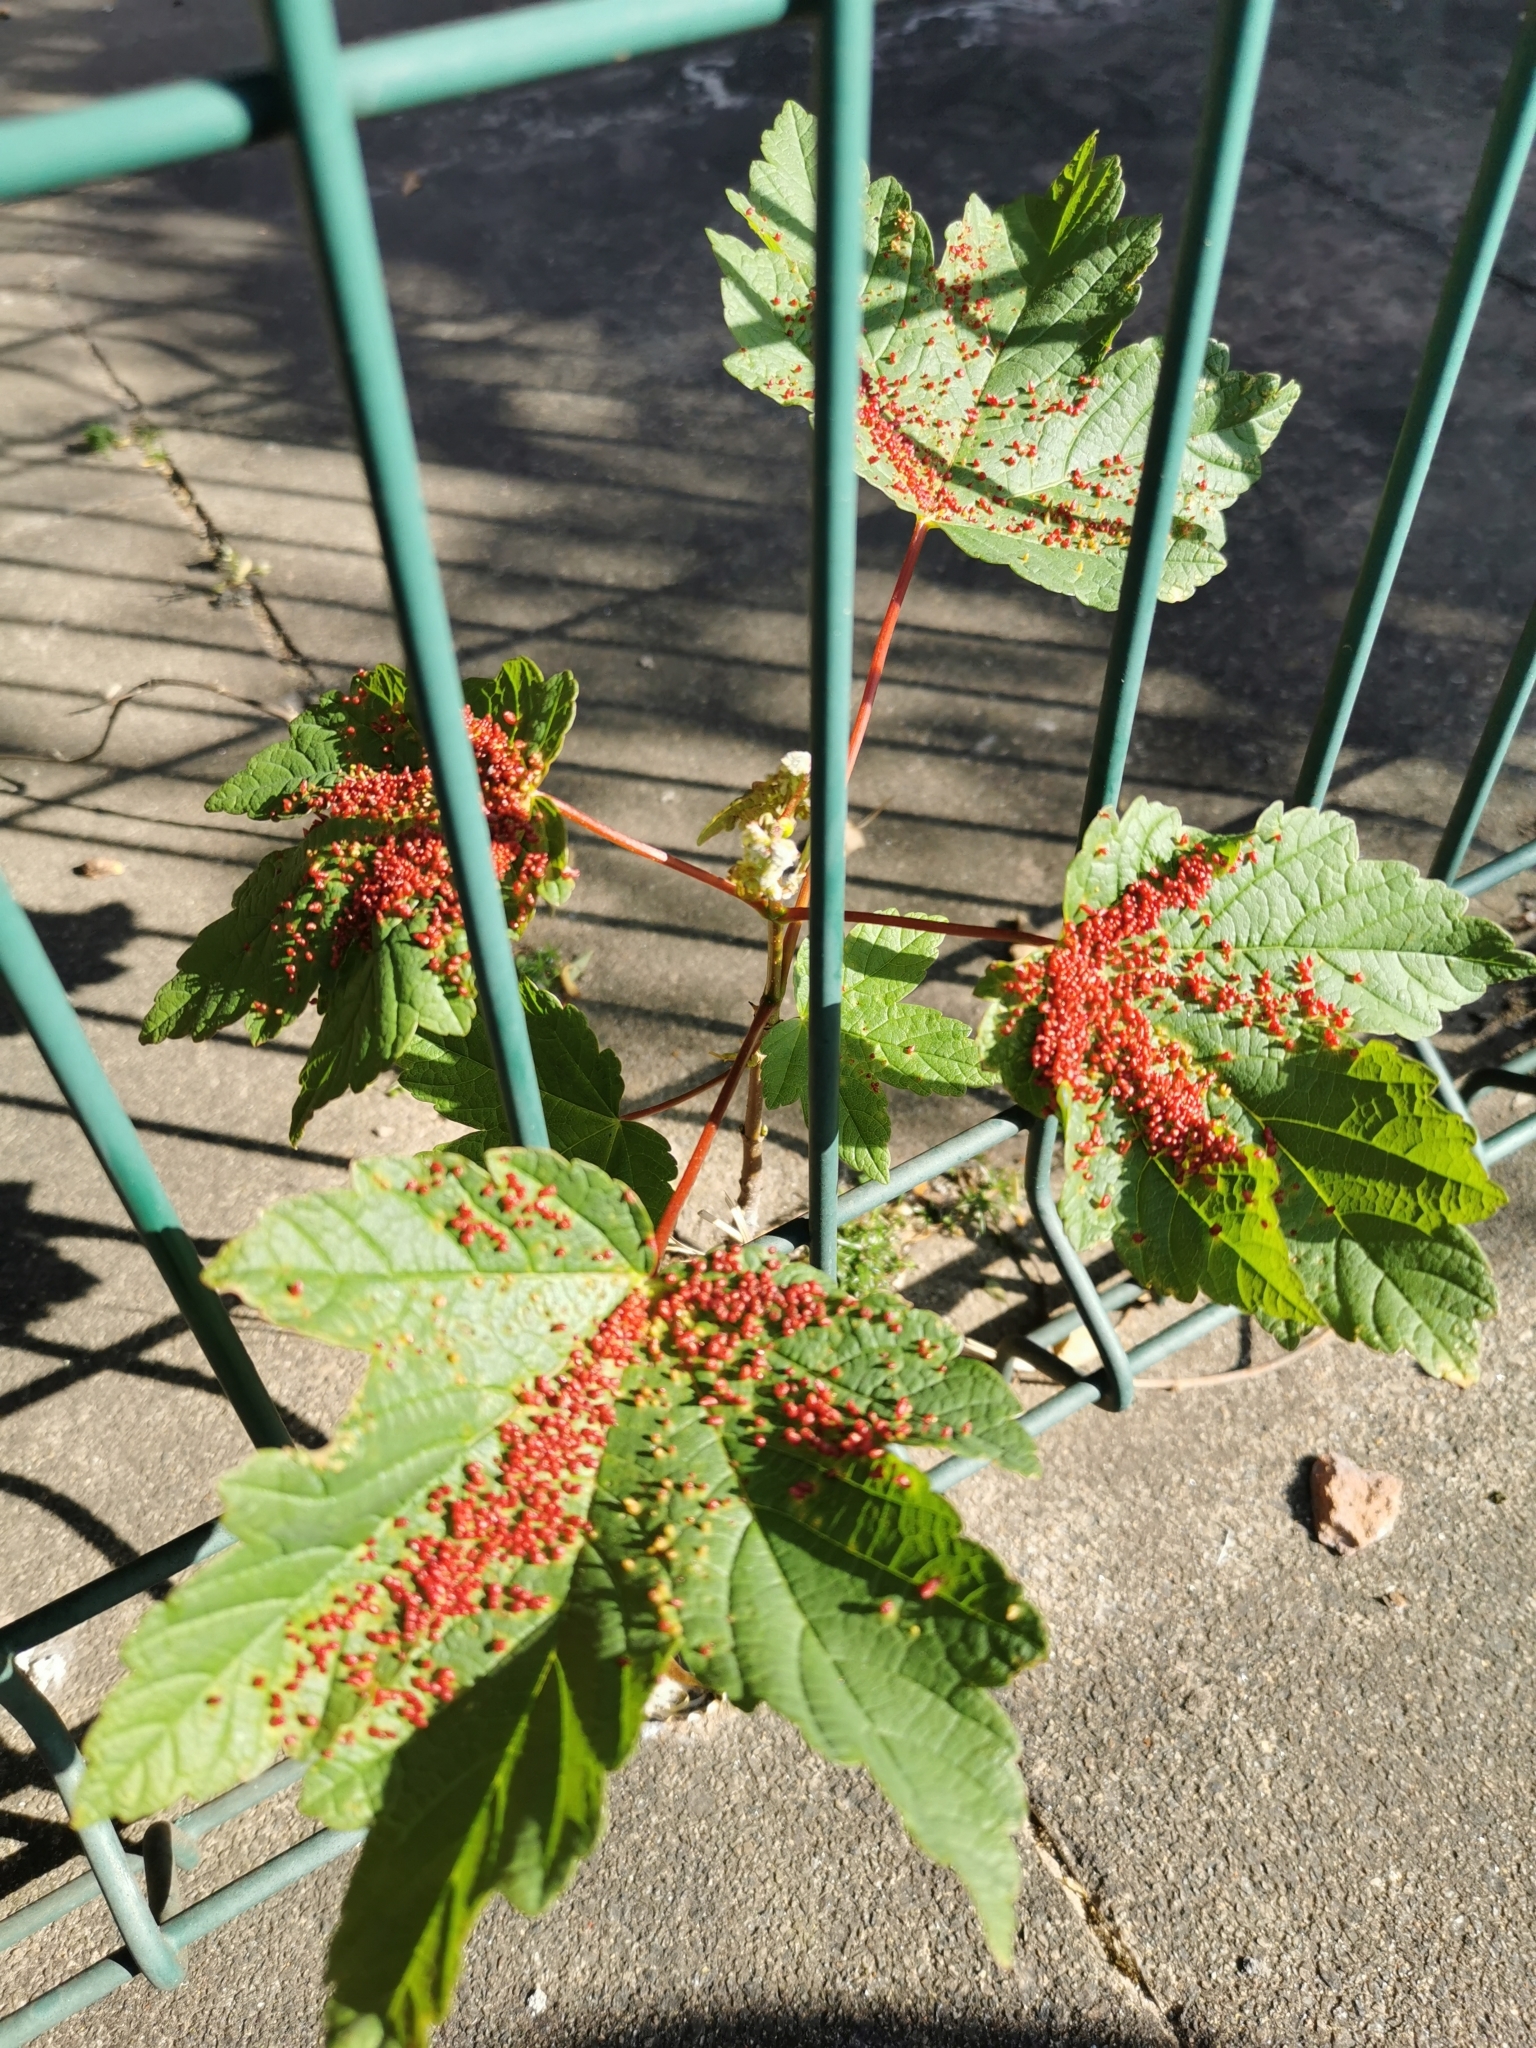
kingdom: Animalia
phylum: Arthropoda
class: Arachnida
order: Trombidiformes
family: Eriophyidae
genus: Aceria
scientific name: Aceria cephaloneus
